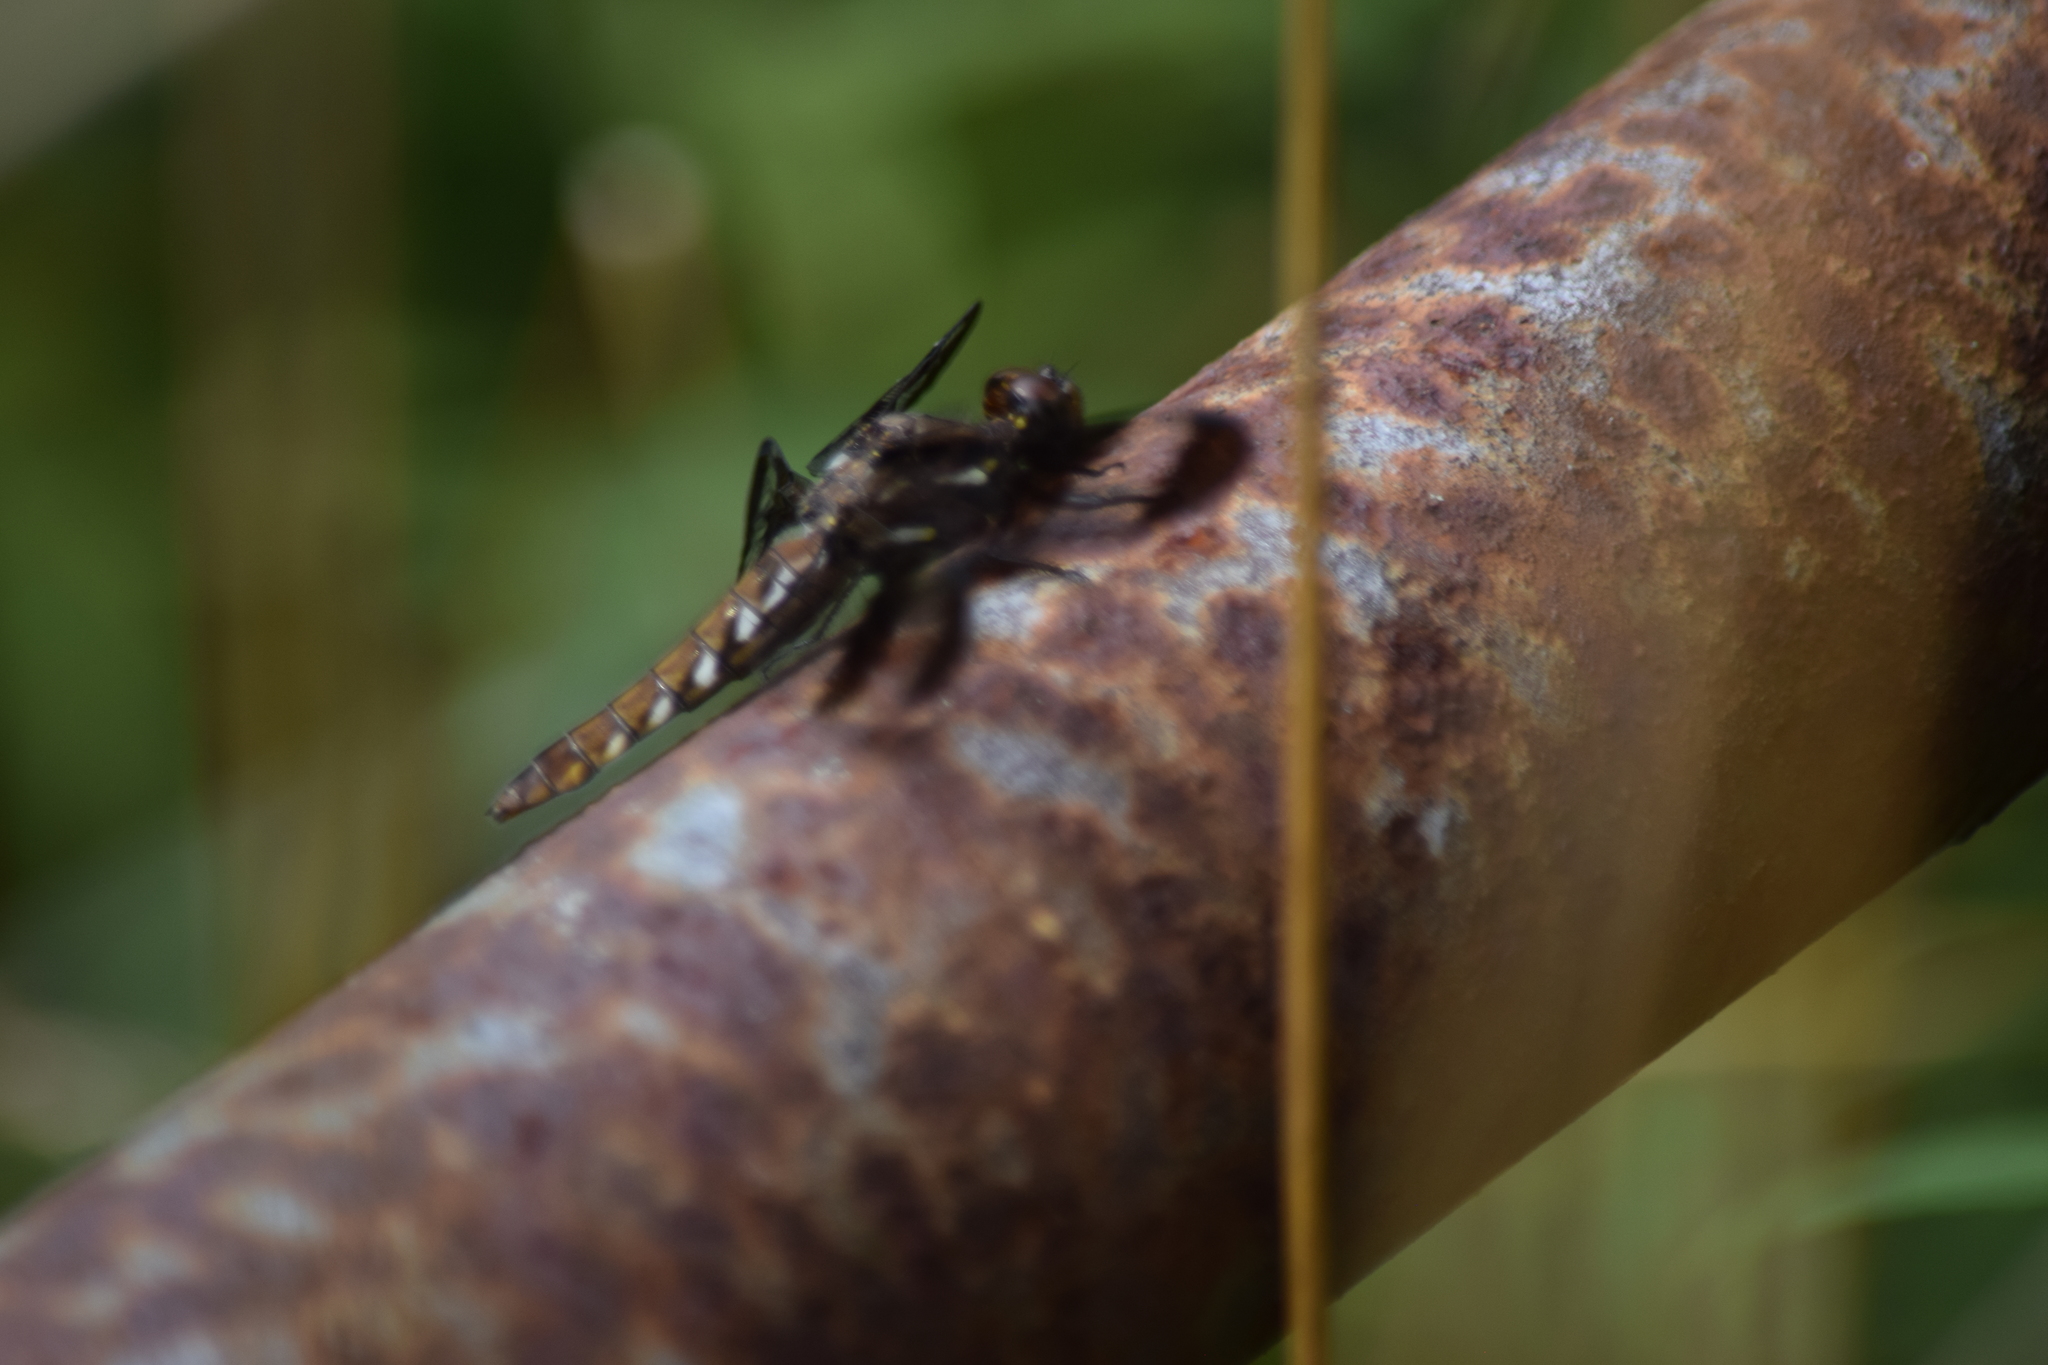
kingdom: Animalia
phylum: Arthropoda
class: Insecta
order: Odonata
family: Libellulidae
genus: Plathemis
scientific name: Plathemis lydia
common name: Common whitetail
